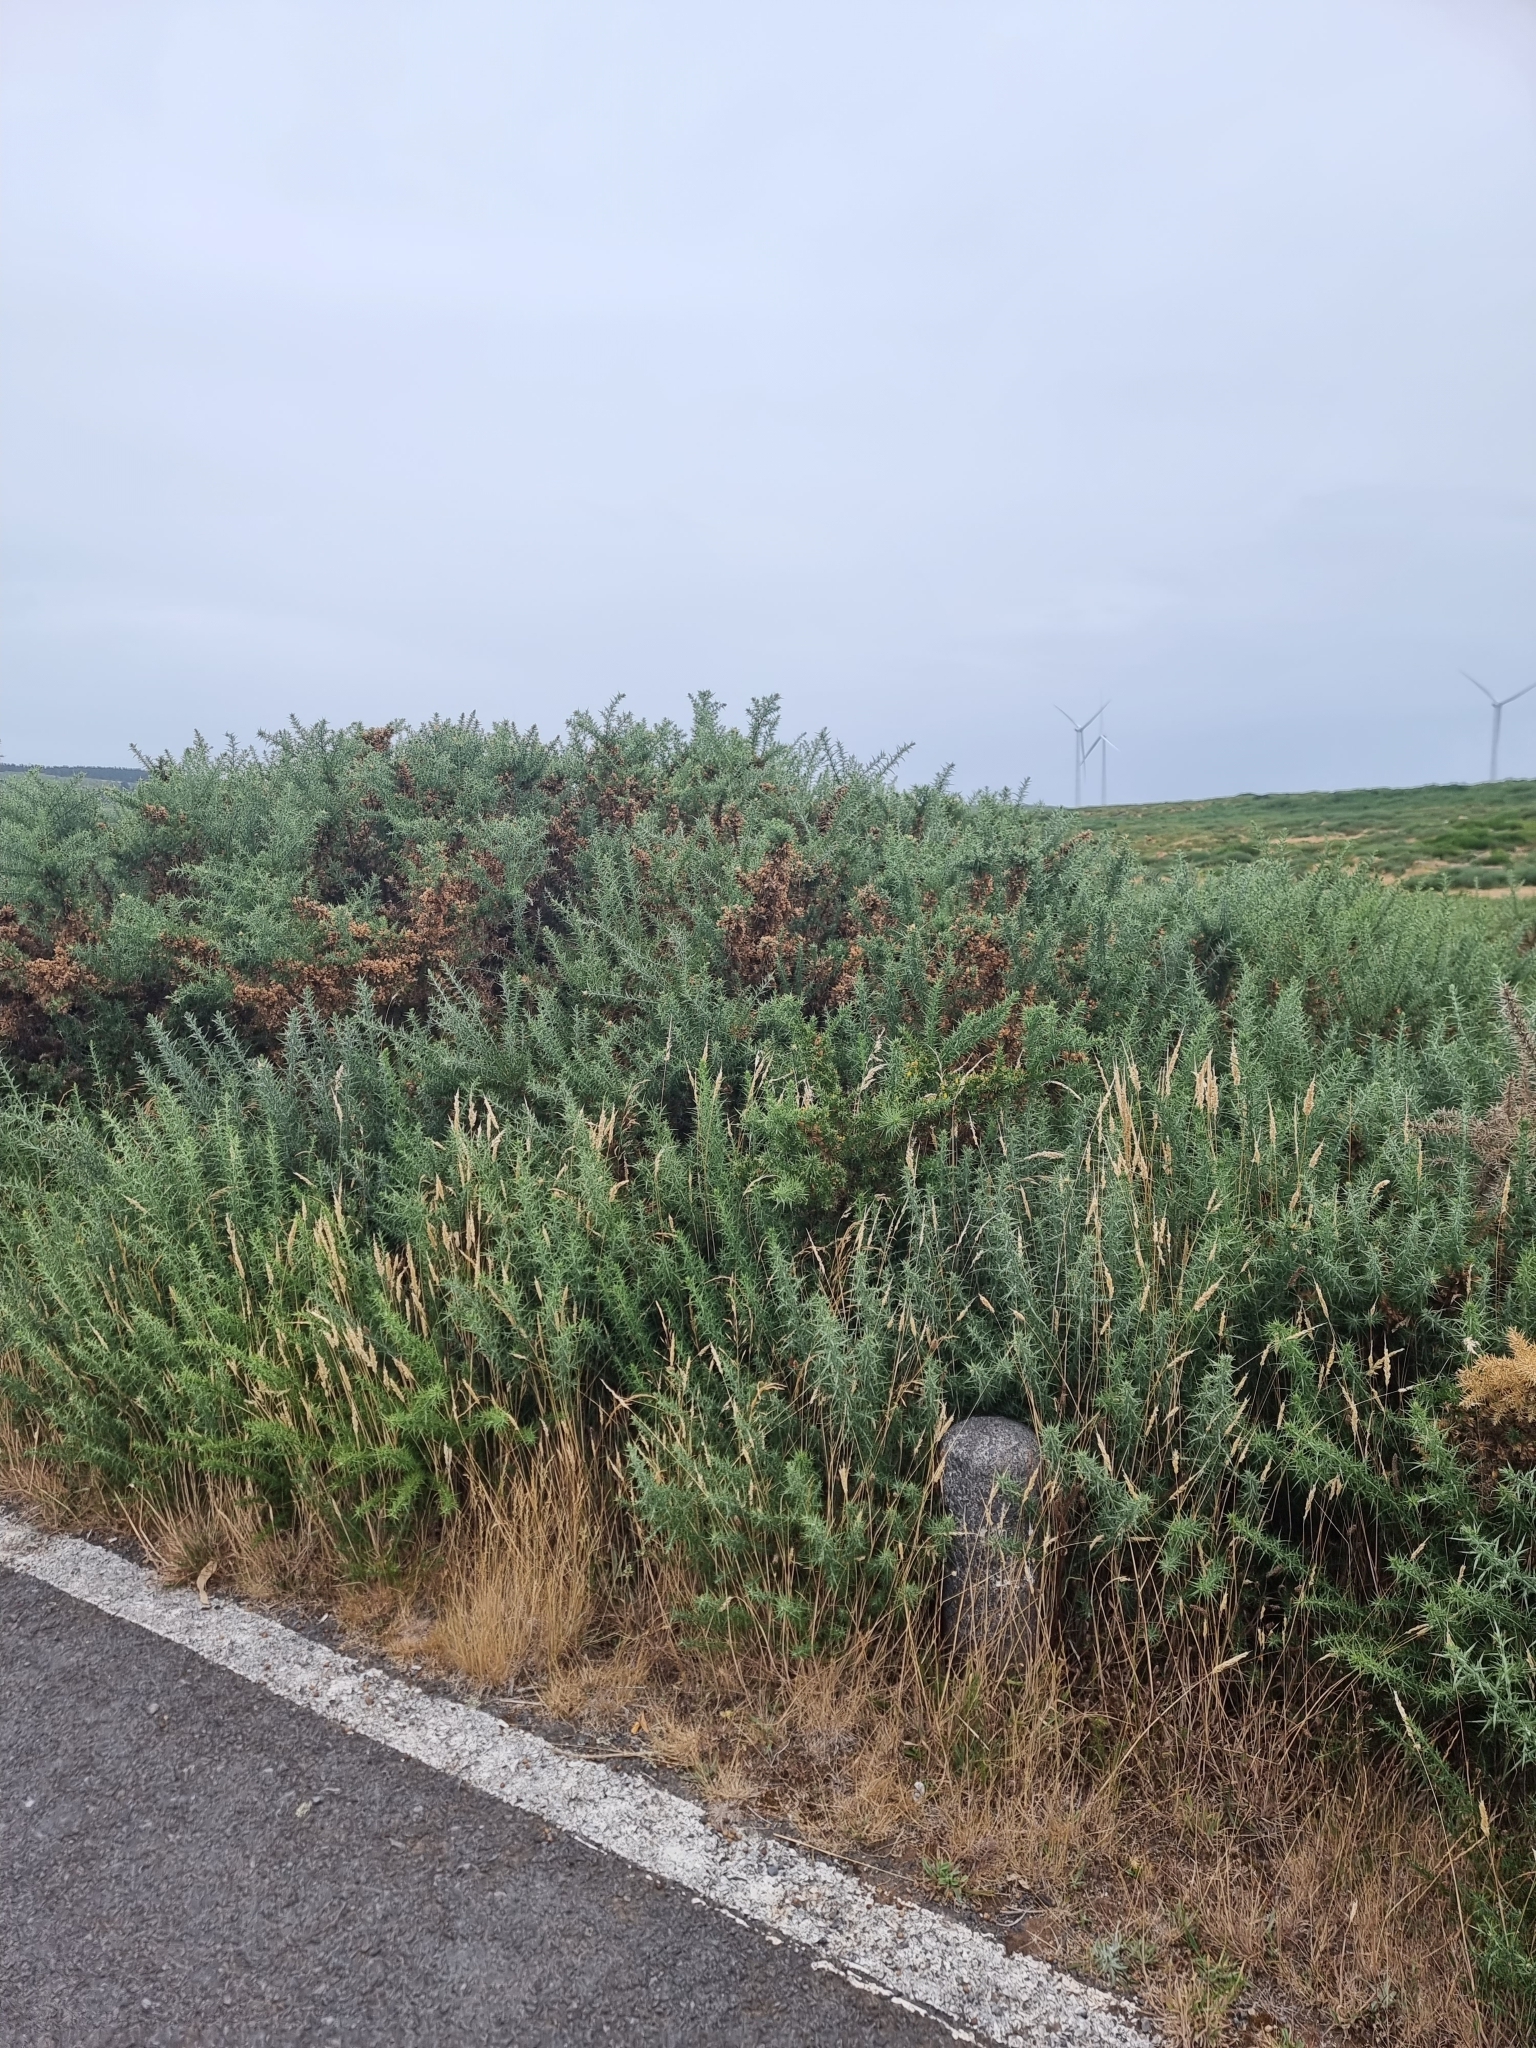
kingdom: Plantae
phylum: Tracheophyta
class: Magnoliopsida
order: Fabales
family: Fabaceae
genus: Ulex
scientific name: Ulex europaeus
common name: Common gorse
